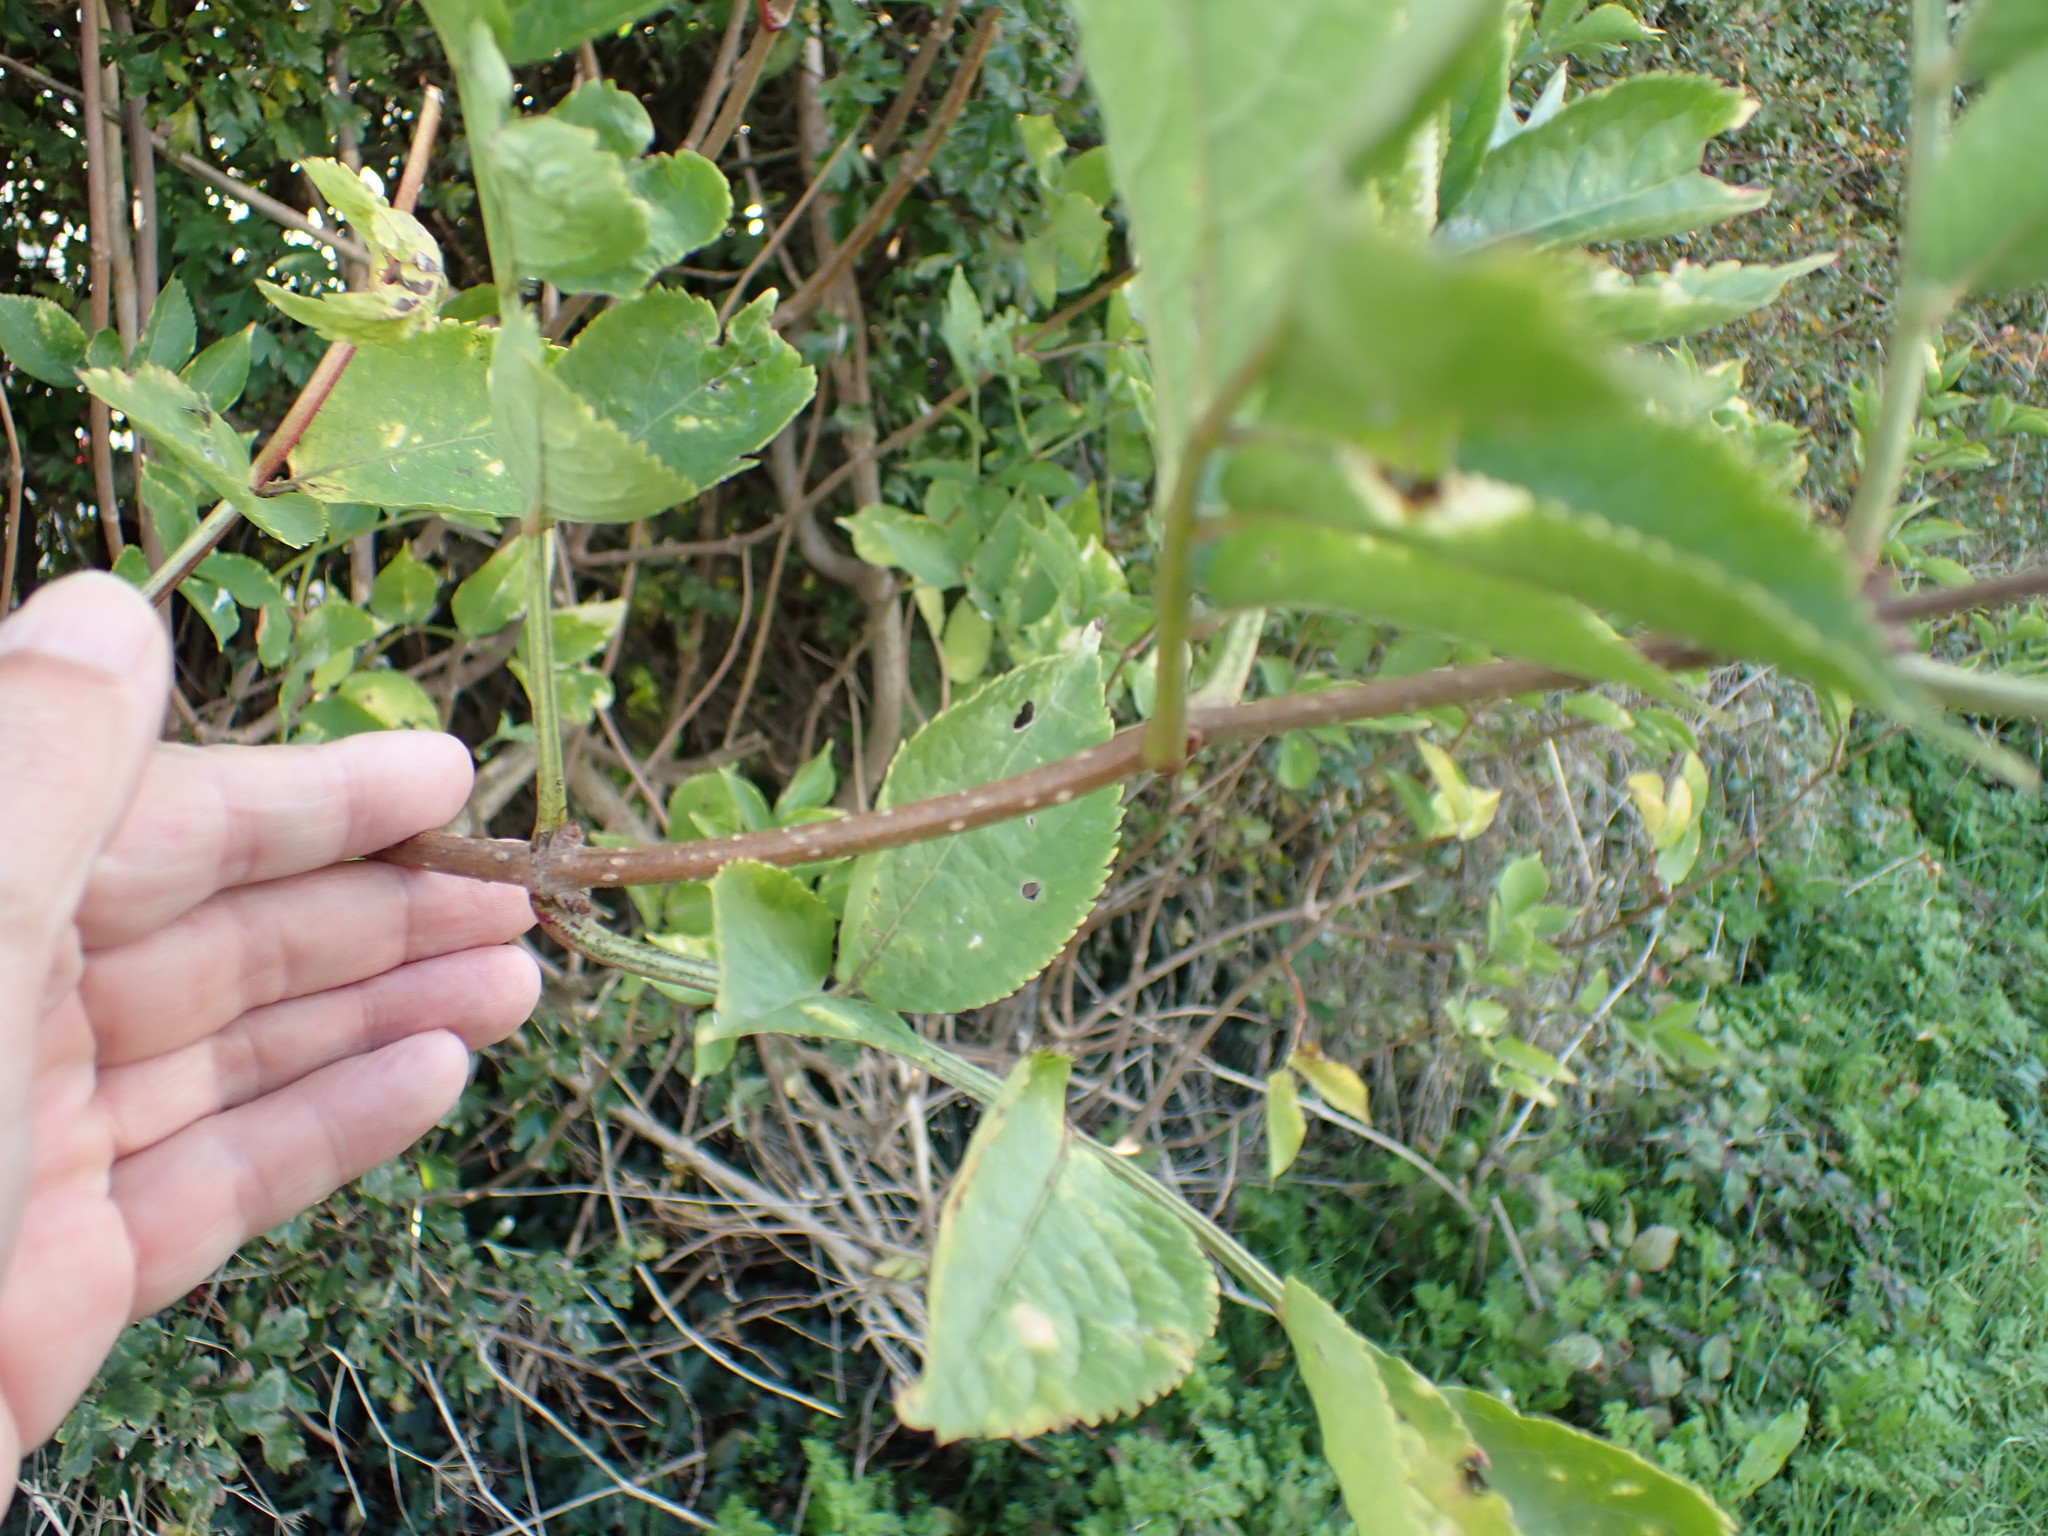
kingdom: Plantae
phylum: Tracheophyta
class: Magnoliopsida
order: Dipsacales
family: Viburnaceae
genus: Sambucus
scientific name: Sambucus nigra
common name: Elder
